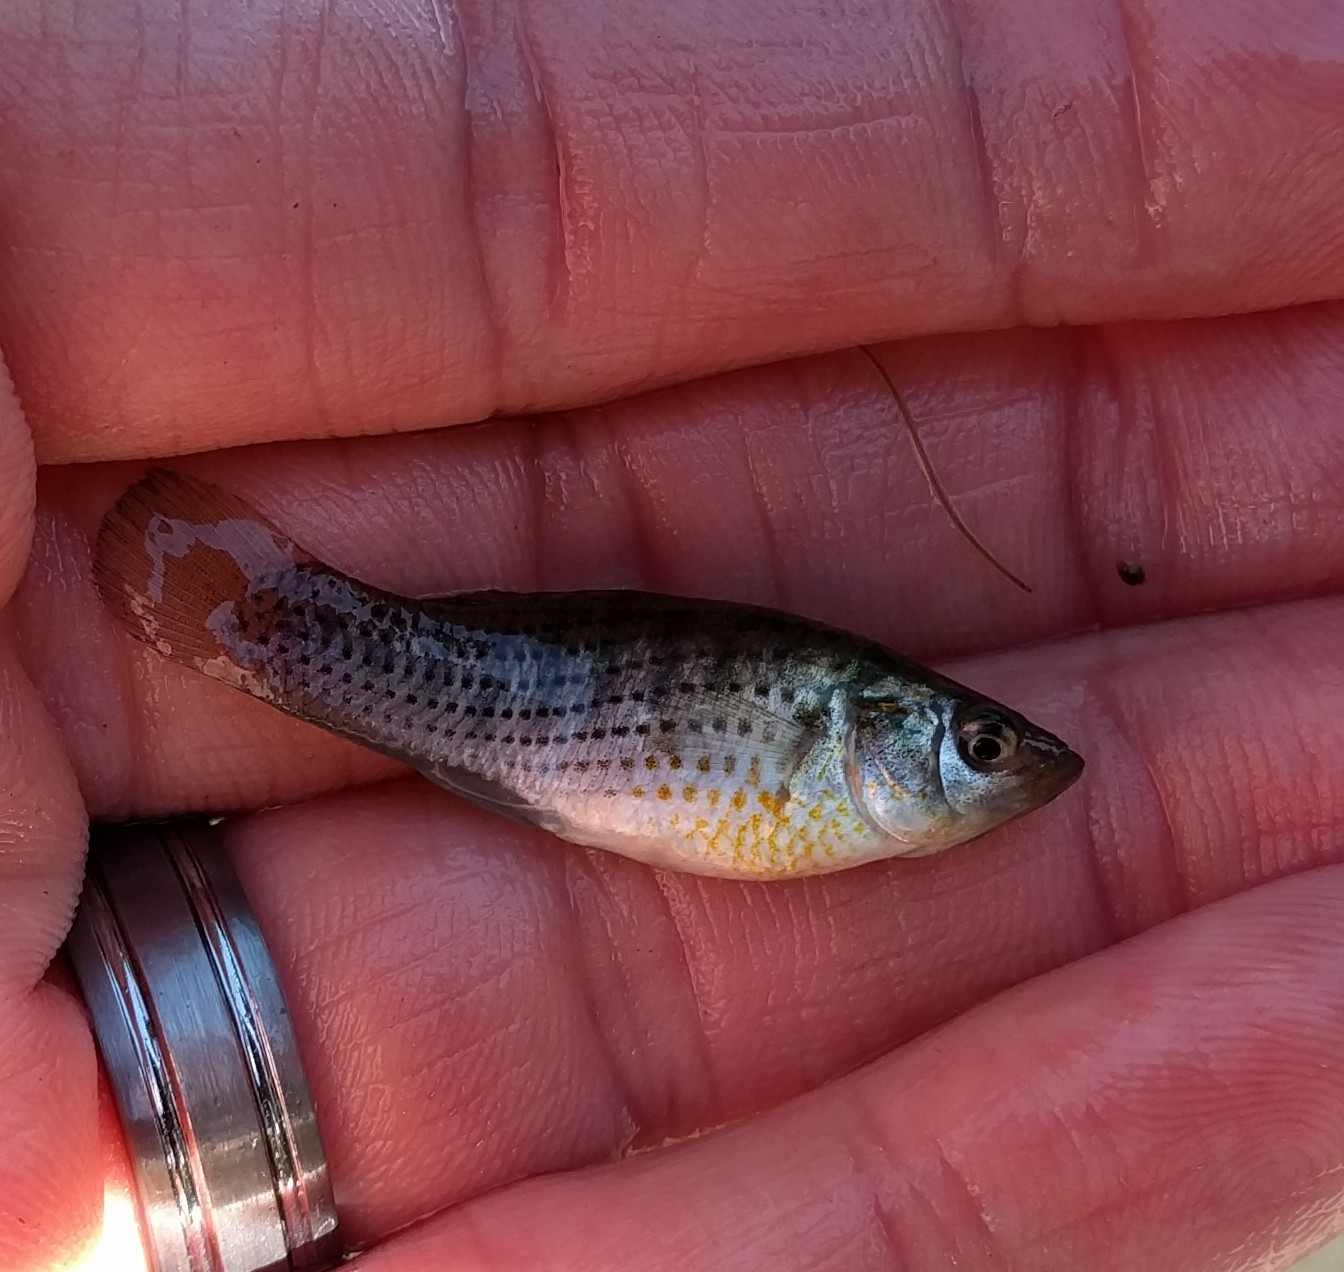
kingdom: Animalia
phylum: Chordata
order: Cyprinodontiformes
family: Poeciliidae
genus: Poecilia
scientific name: Poecilia latipinna
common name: Sailfin molly
